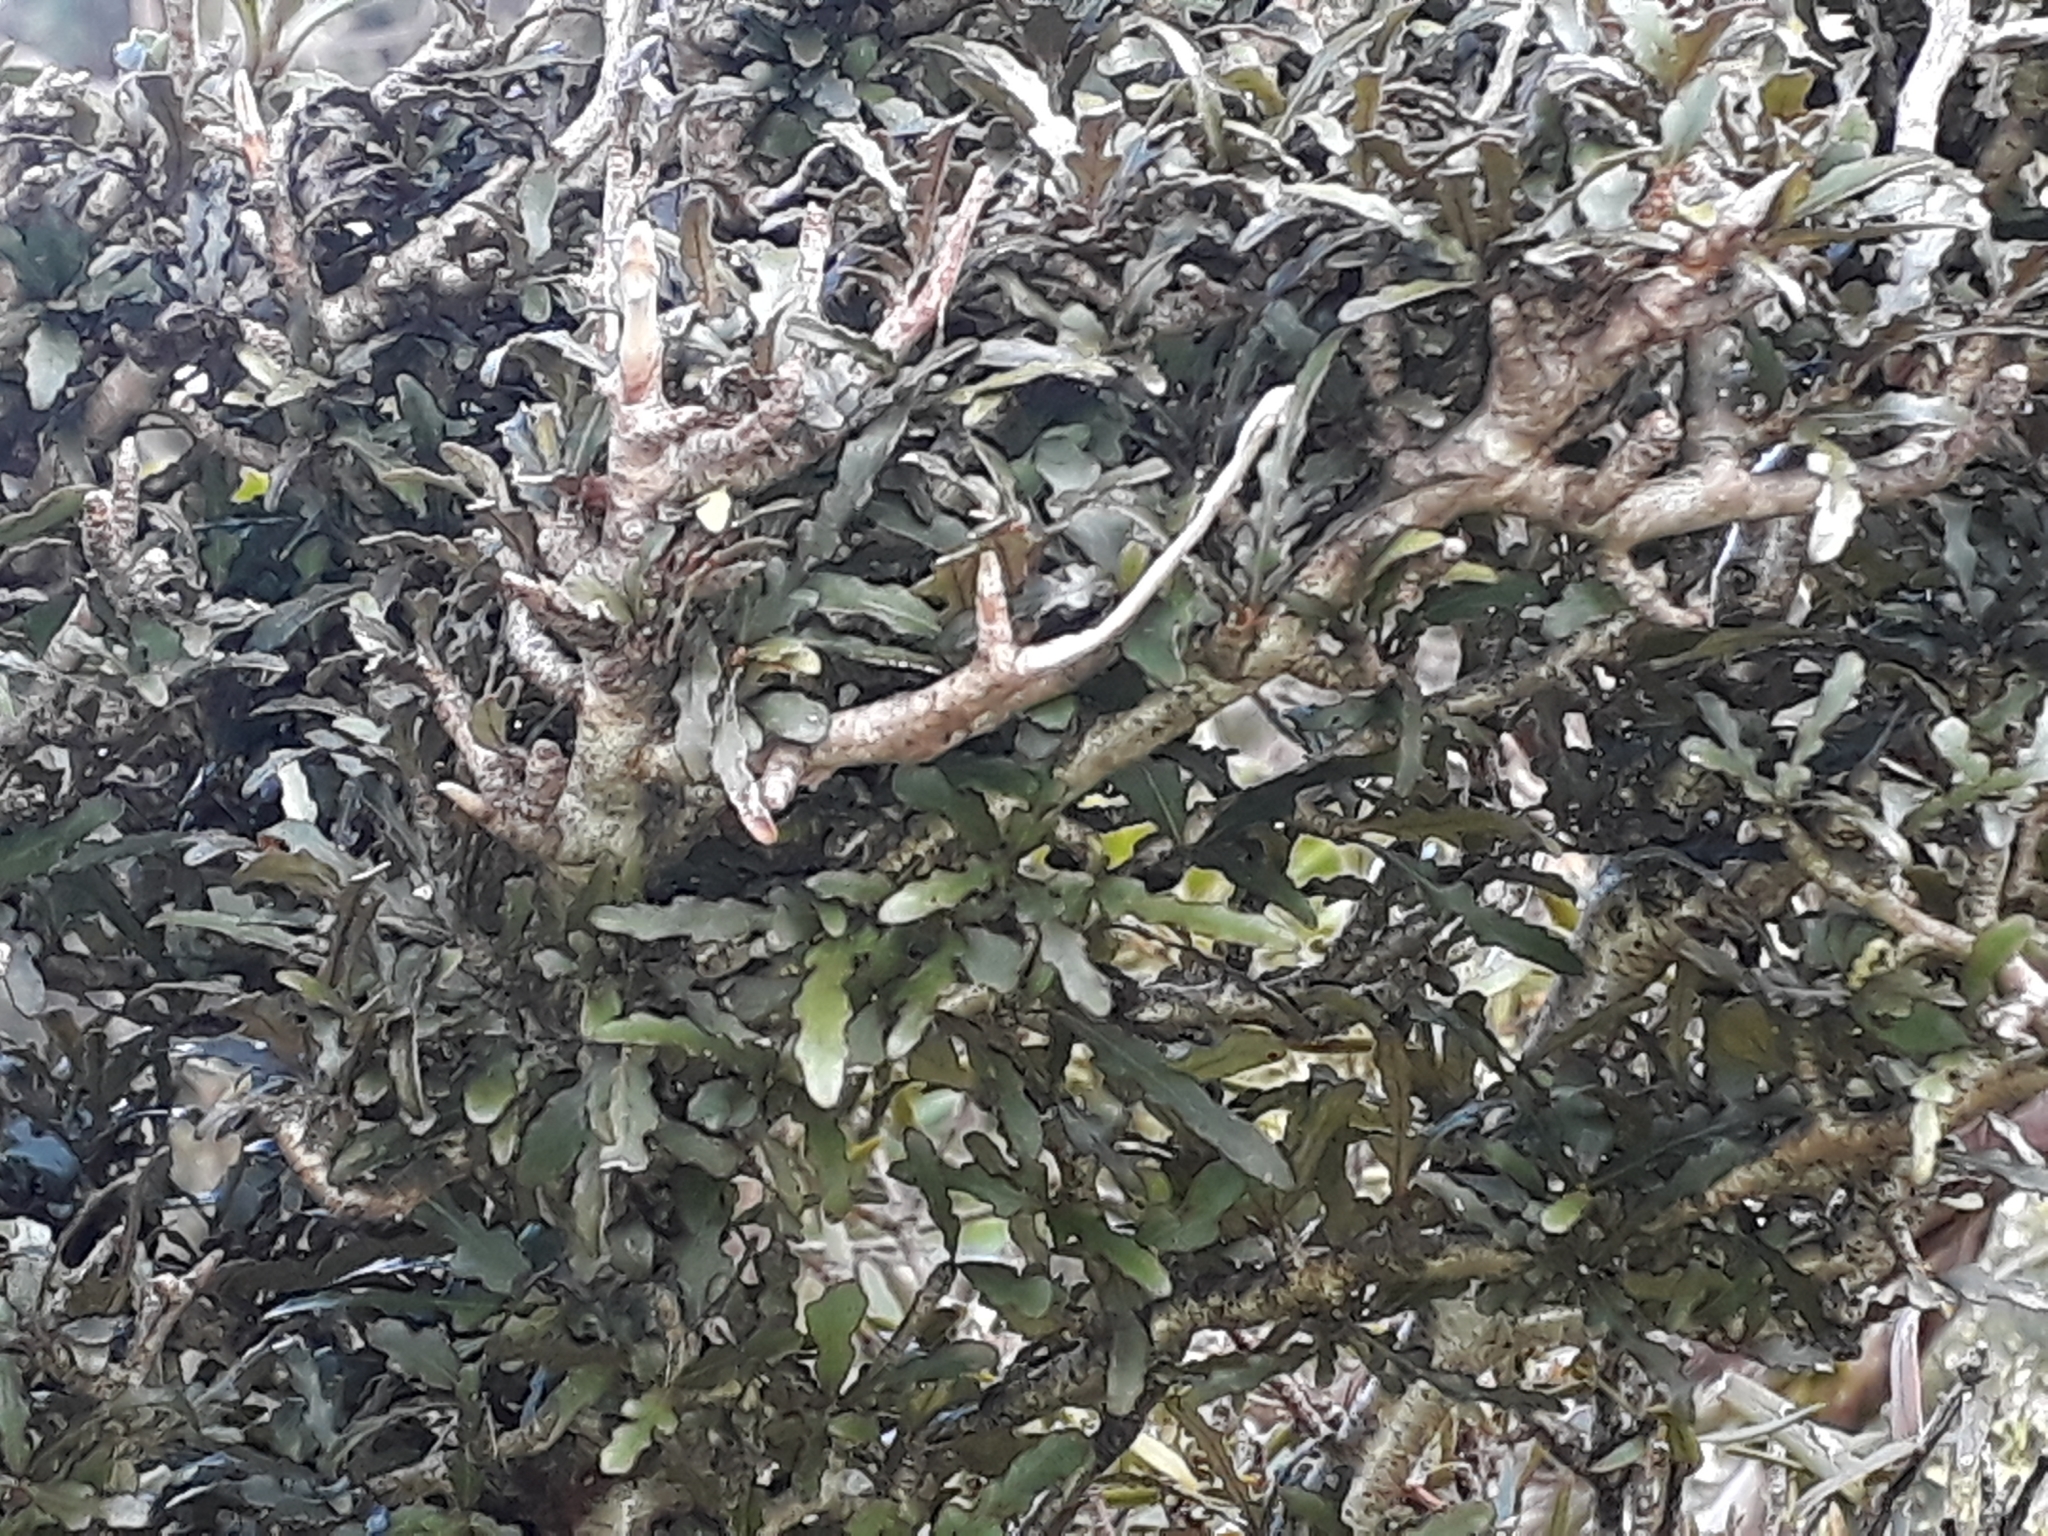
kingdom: Plantae
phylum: Tracheophyta
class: Magnoliopsida
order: Oxalidales
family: Elaeocarpaceae
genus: Elaeocarpus
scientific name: Elaeocarpus hookerianus
